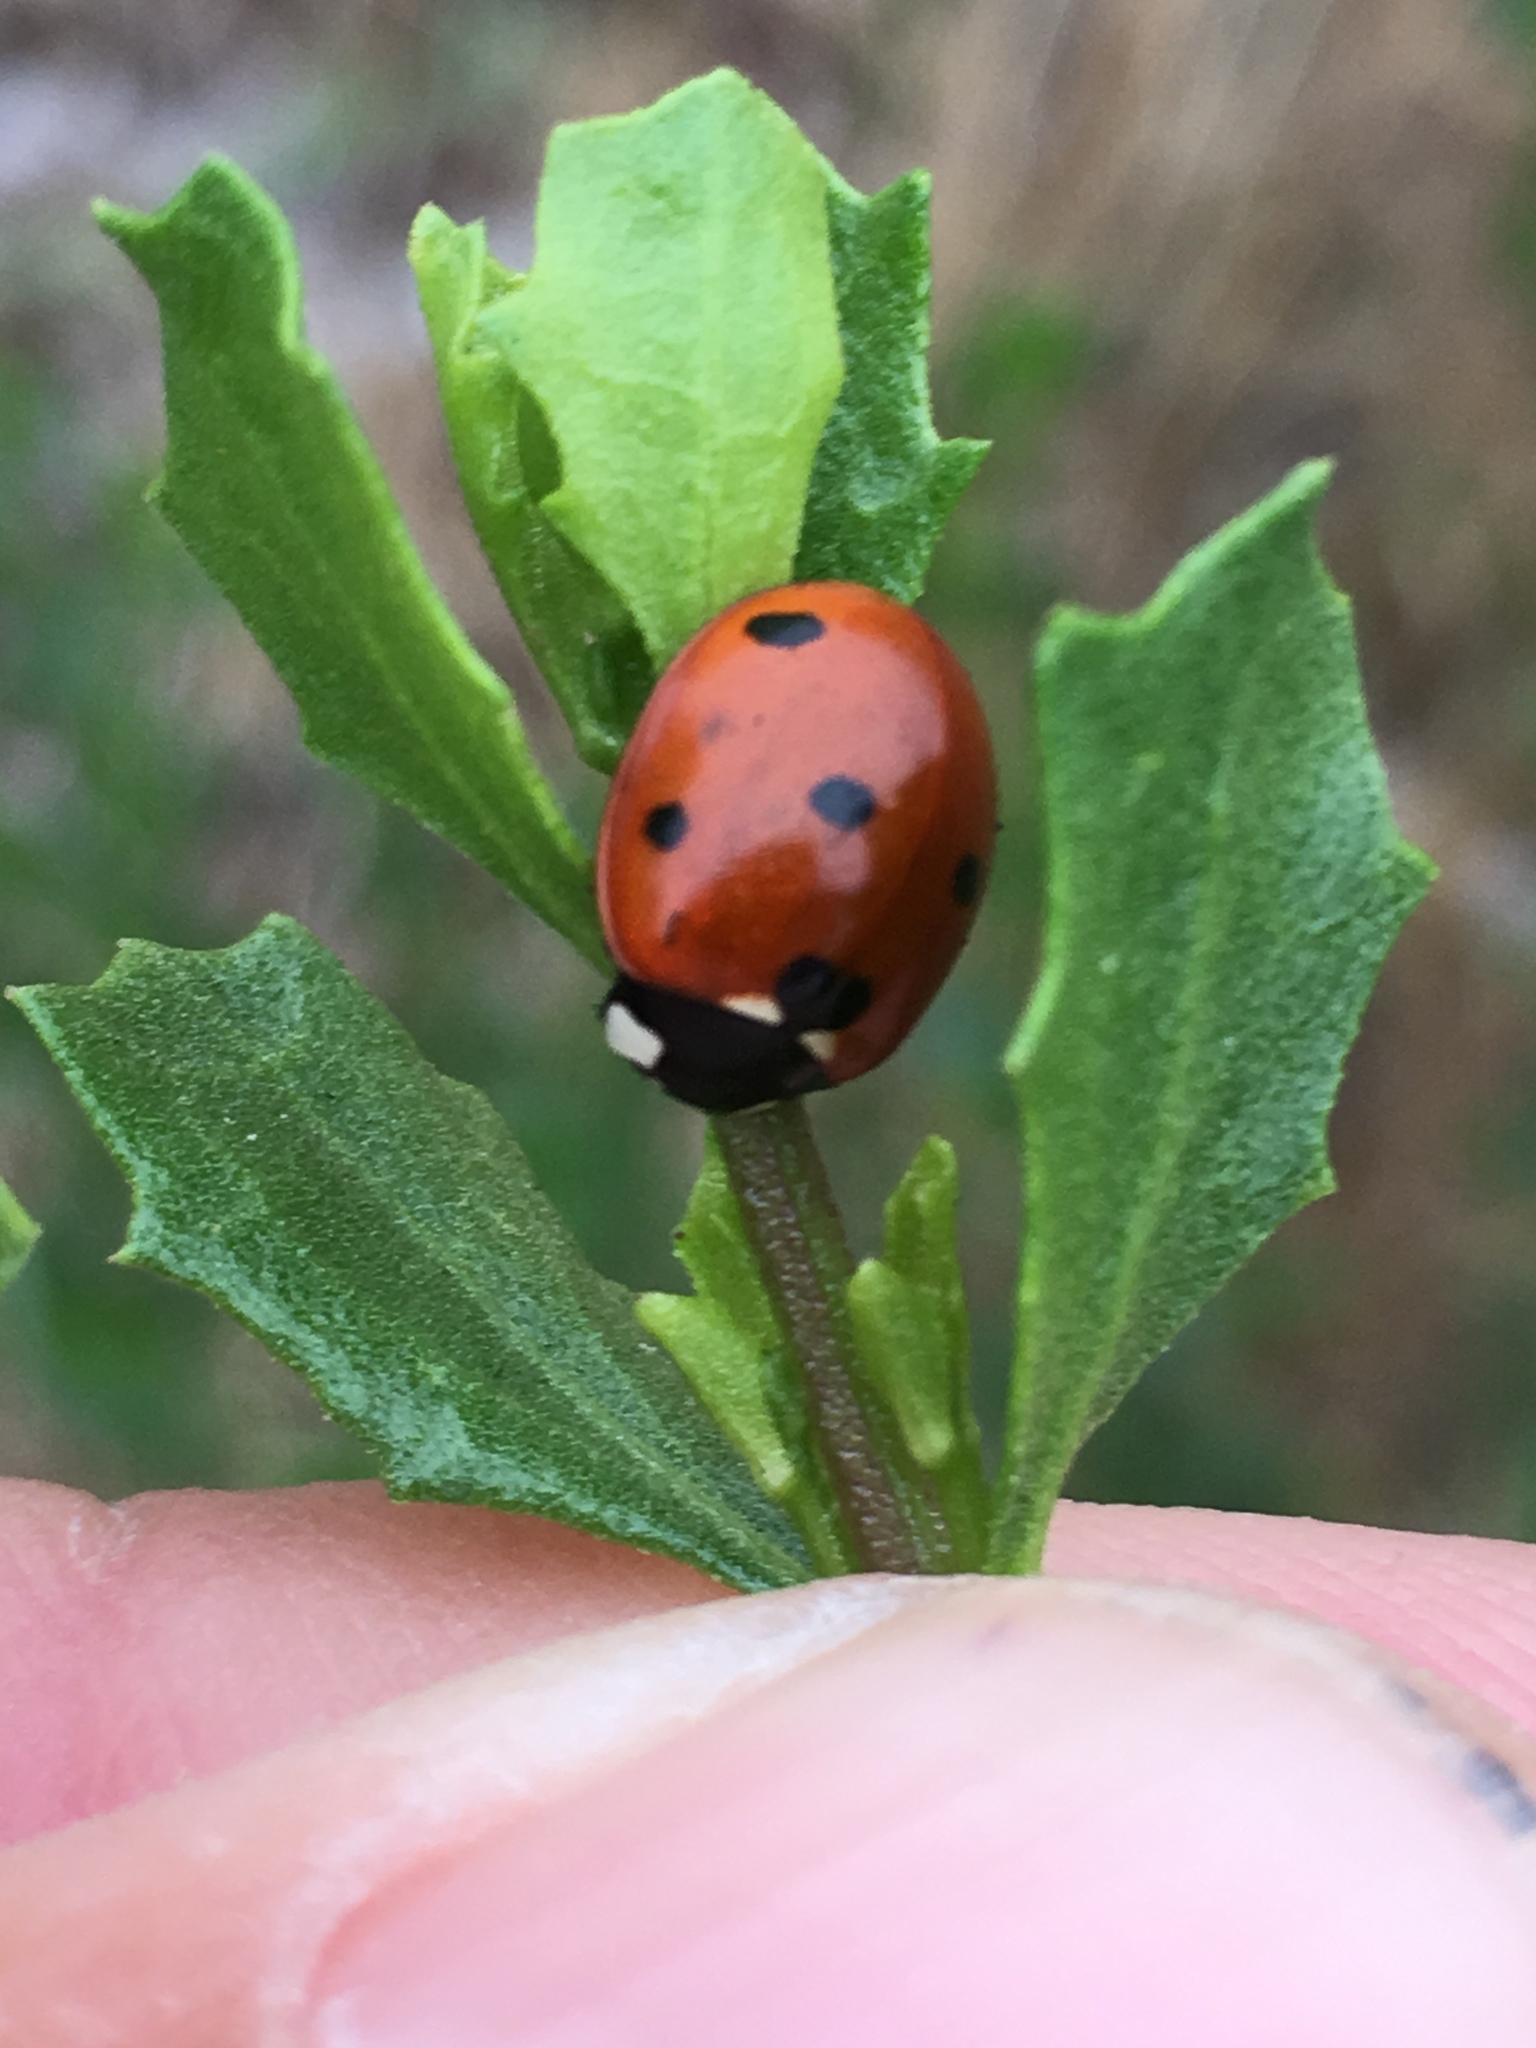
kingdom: Animalia
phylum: Arthropoda
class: Insecta
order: Coleoptera
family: Coccinellidae
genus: Coccinella
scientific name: Coccinella septempunctata
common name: Sevenspotted lady beetle
